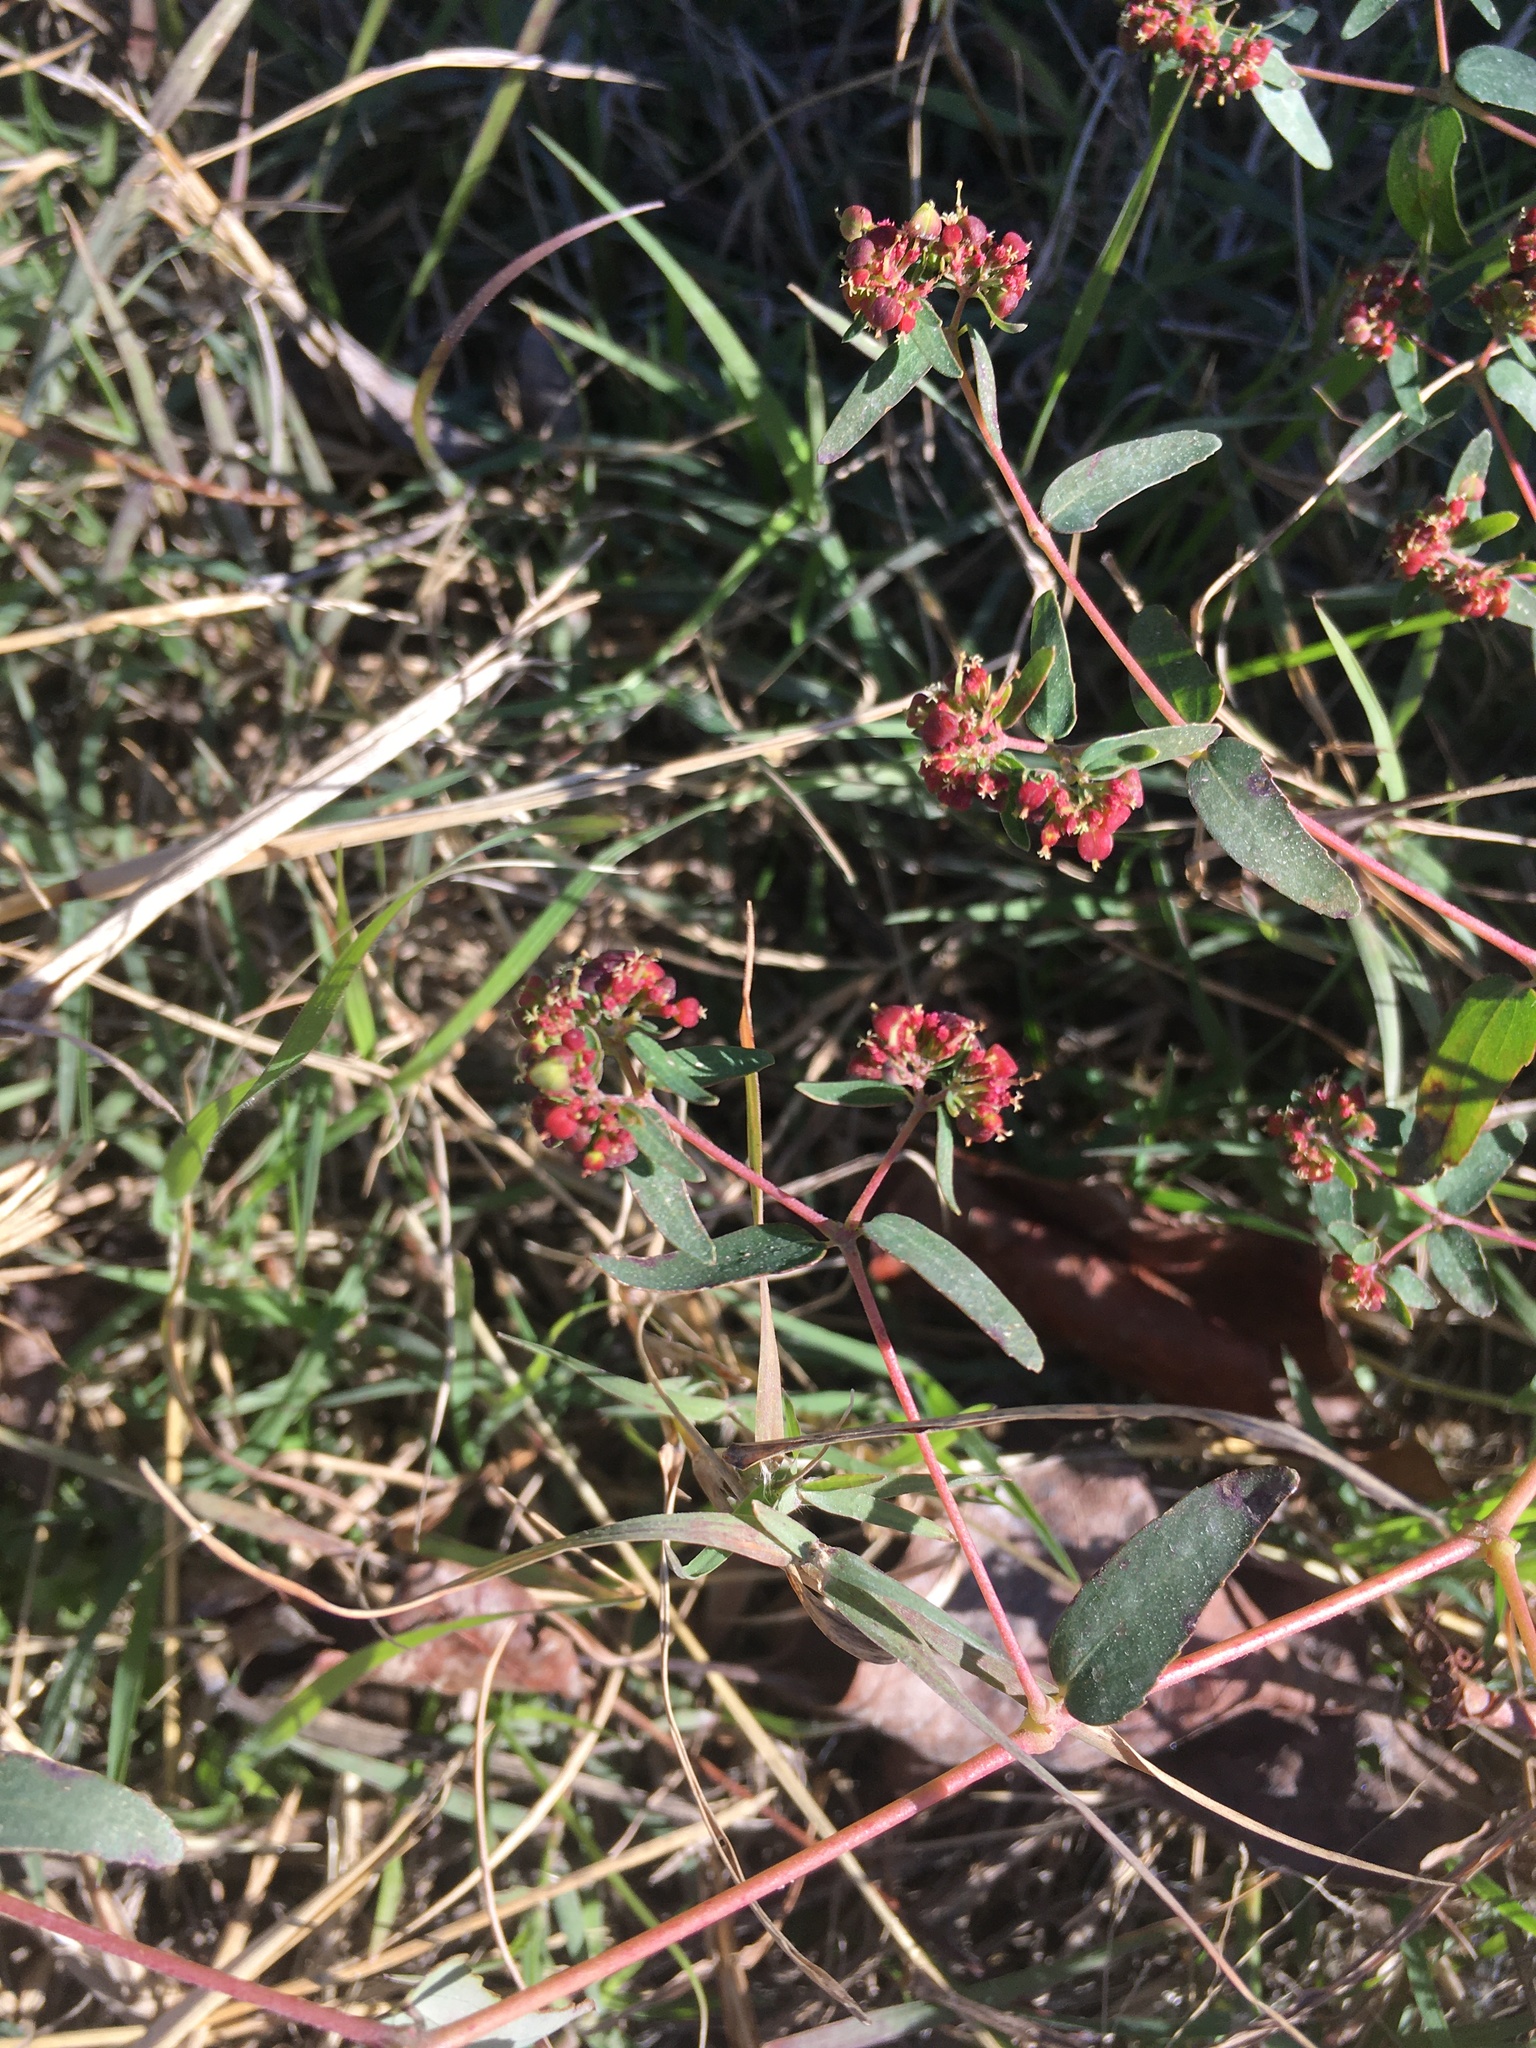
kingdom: Plantae
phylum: Tracheophyta
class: Magnoliopsida
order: Malpighiales
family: Euphorbiaceae
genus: Euphorbia
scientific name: Euphorbia nutans
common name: Eyebane
